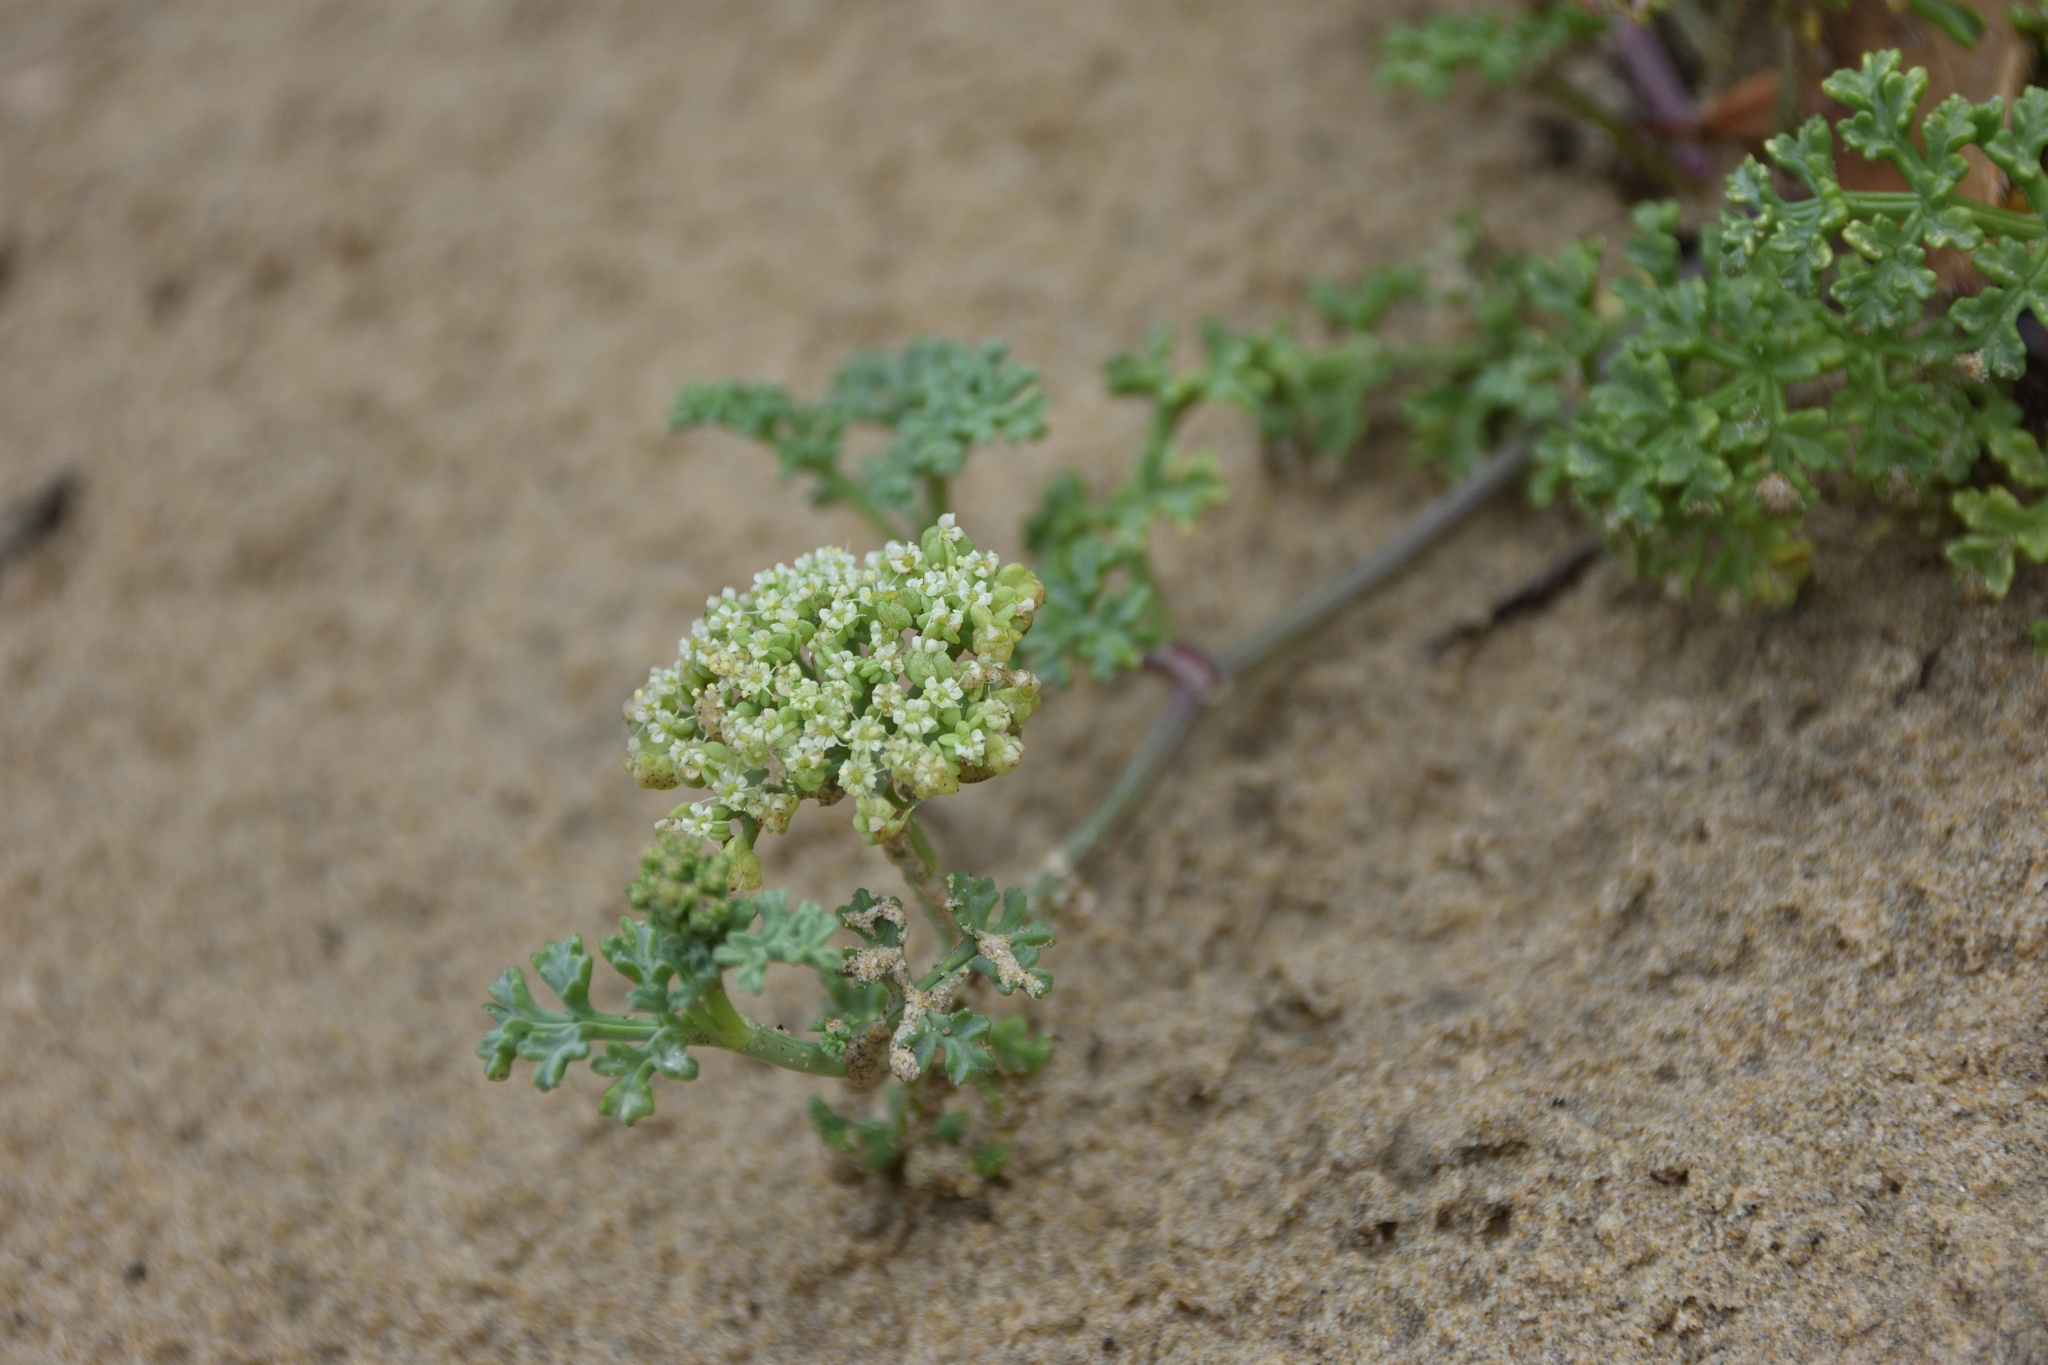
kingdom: Plantae
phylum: Tracheophyta
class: Magnoliopsida
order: Apiales
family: Apiaceae
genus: Dasispermum
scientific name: Dasispermum suffruticosum
